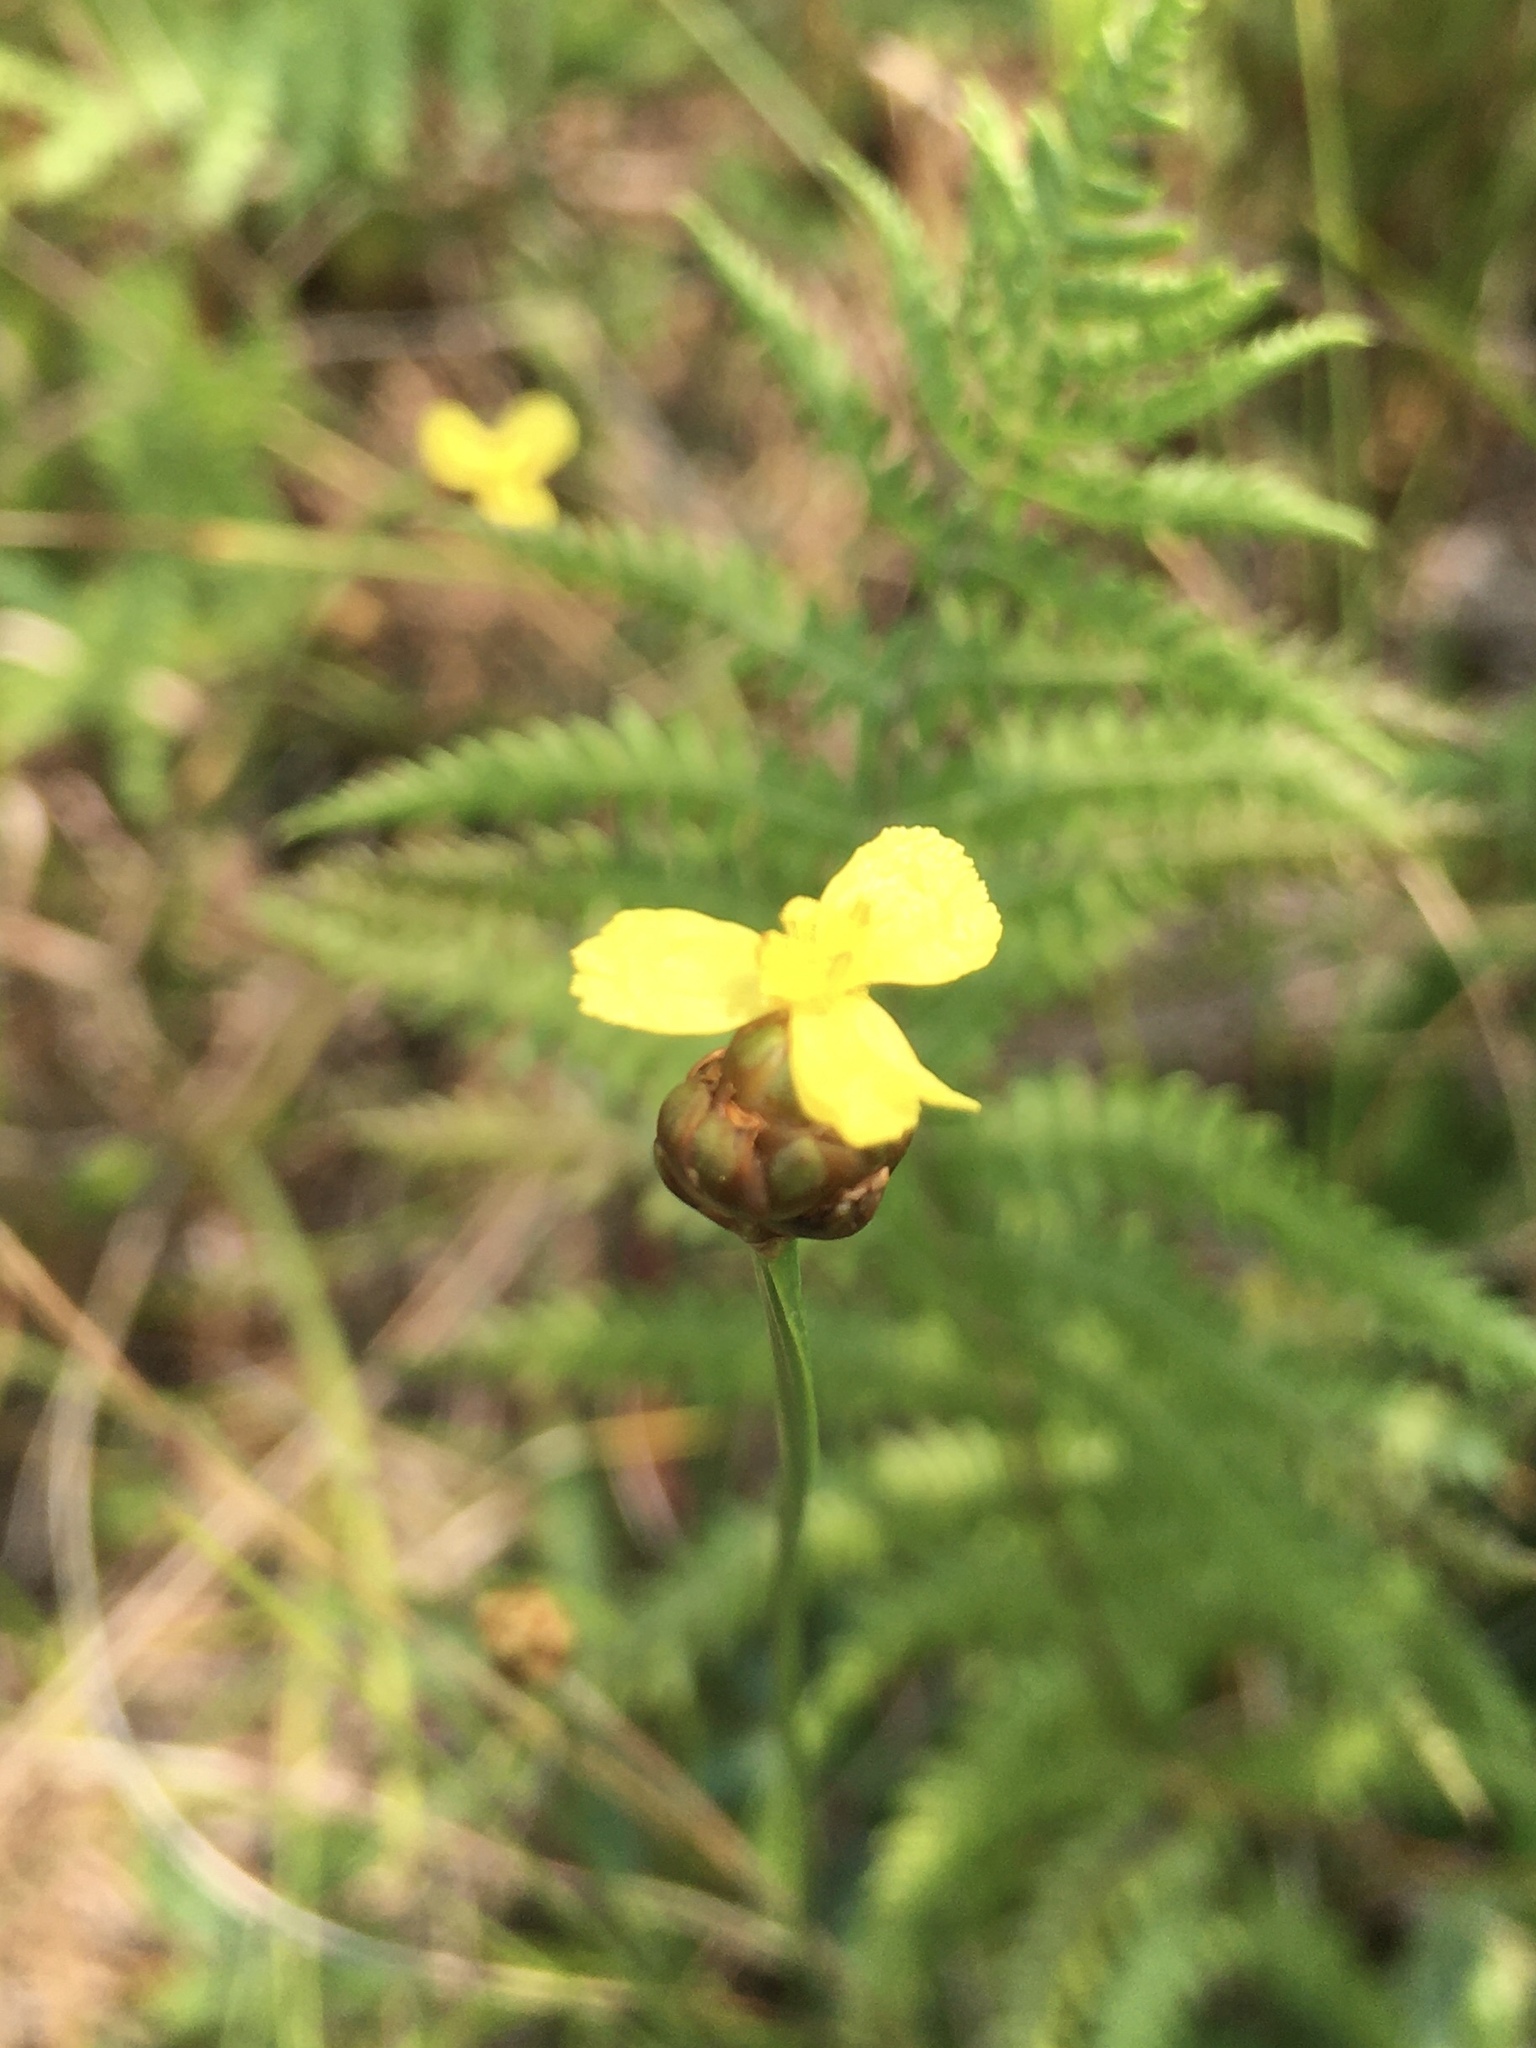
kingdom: Plantae
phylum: Tracheophyta
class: Liliopsida
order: Poales
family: Xyridaceae
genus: Xyris
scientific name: Xyris torta
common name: Common yelloweyed grass
